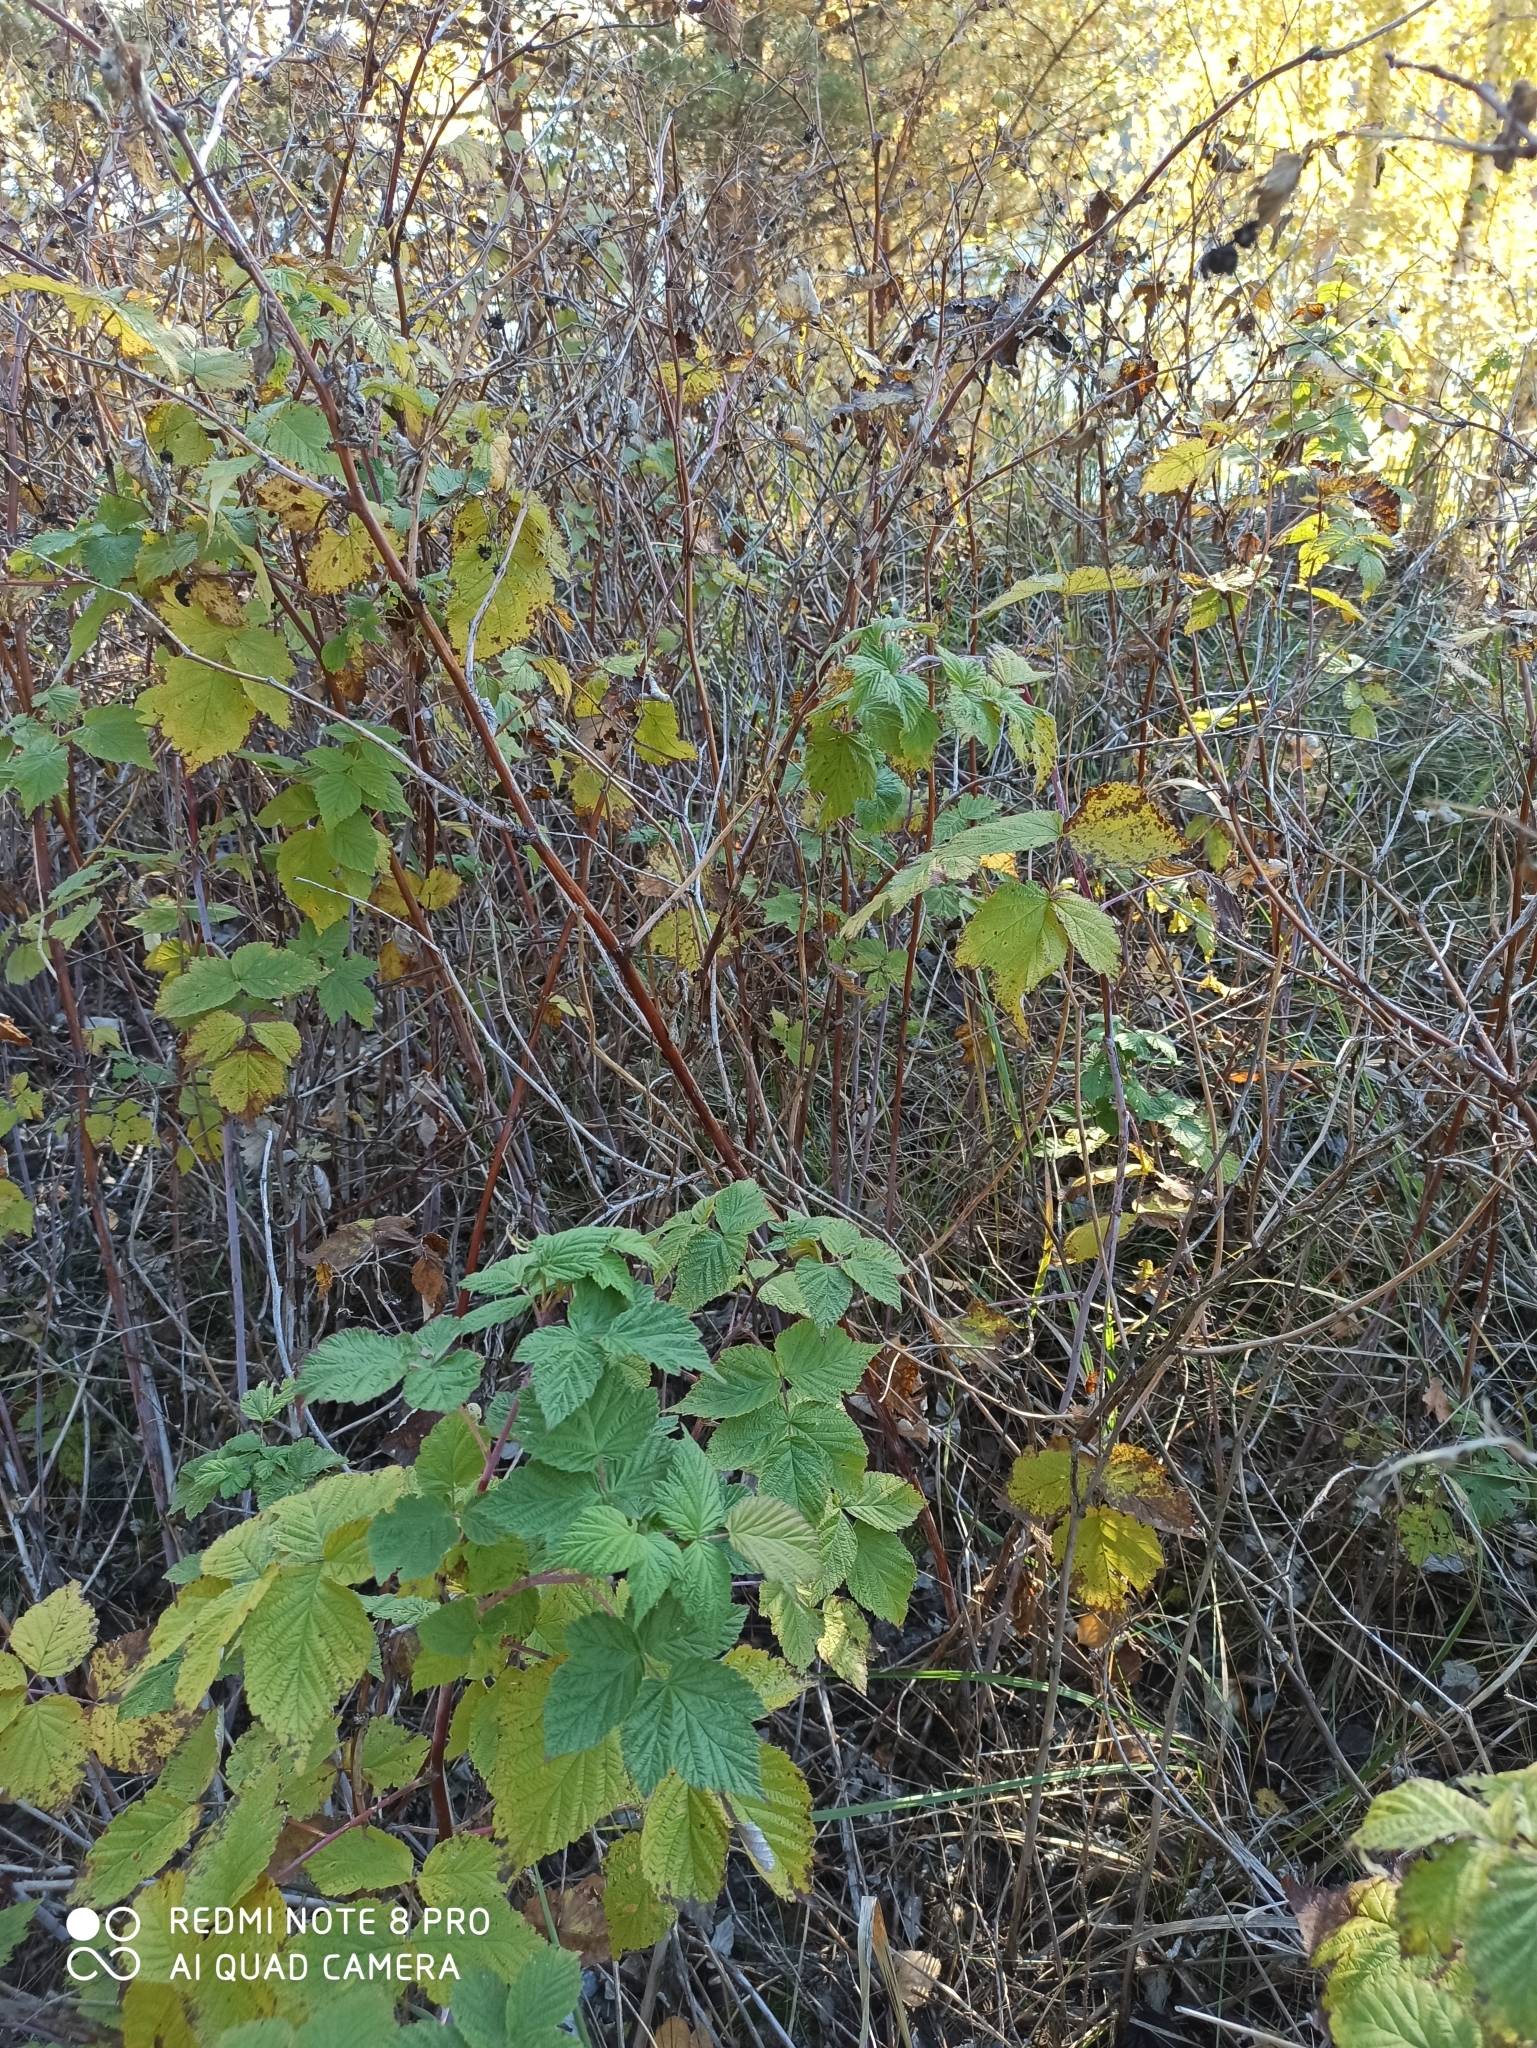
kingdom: Plantae
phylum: Tracheophyta
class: Magnoliopsida
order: Rosales
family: Rosaceae
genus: Rubus
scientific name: Rubus idaeus
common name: Raspberry
